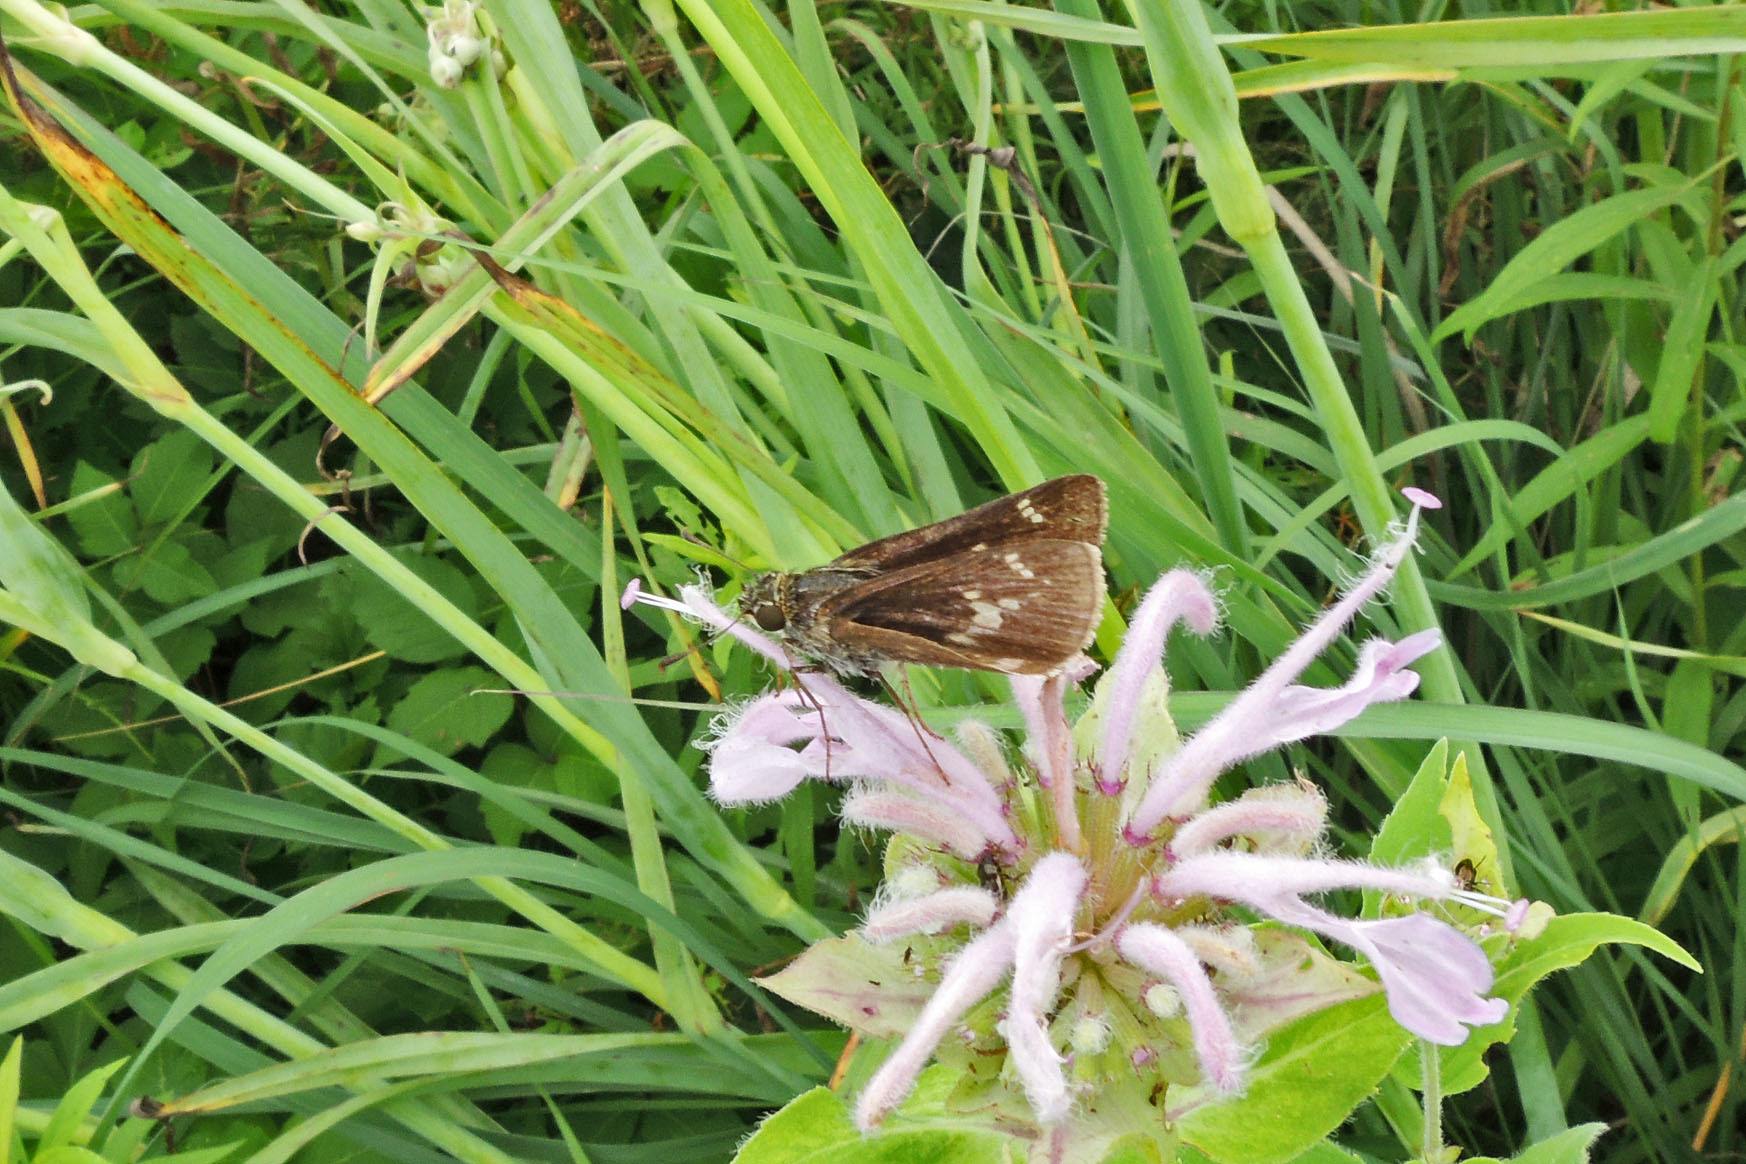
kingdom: Animalia
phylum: Arthropoda
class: Insecta
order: Lepidoptera
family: Hesperiidae
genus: Vernia
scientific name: Vernia verna
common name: Little glassywing
